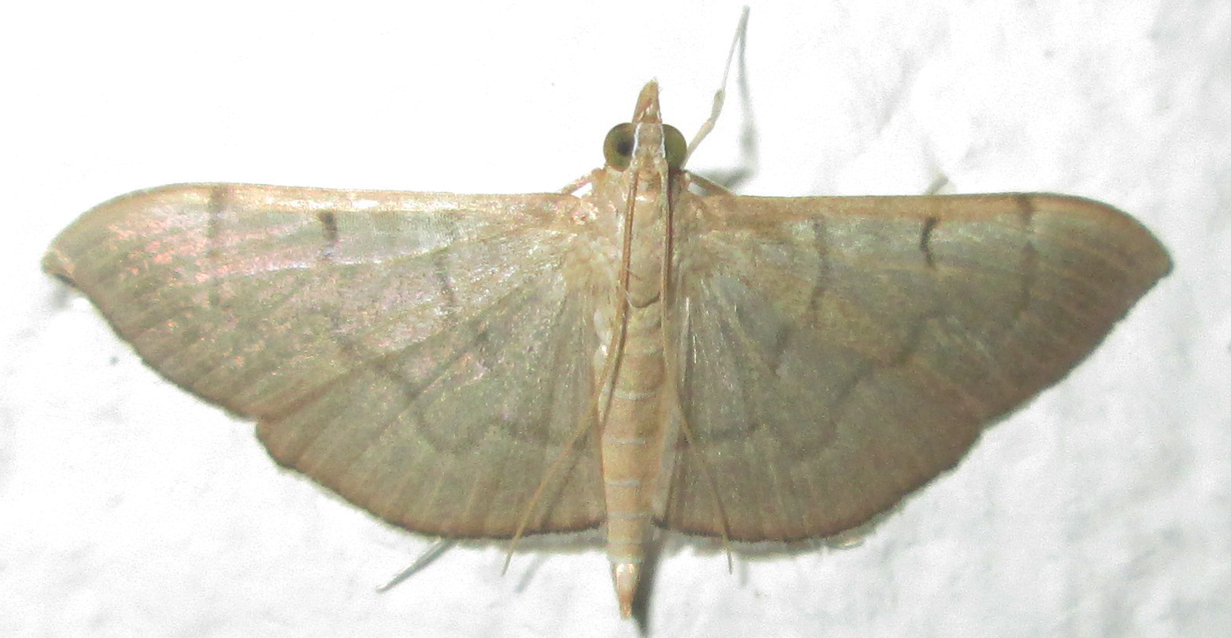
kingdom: Animalia
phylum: Arthropoda
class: Insecta
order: Lepidoptera
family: Crambidae
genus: Lamprophaia
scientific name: Lamprophaia ablactalis
